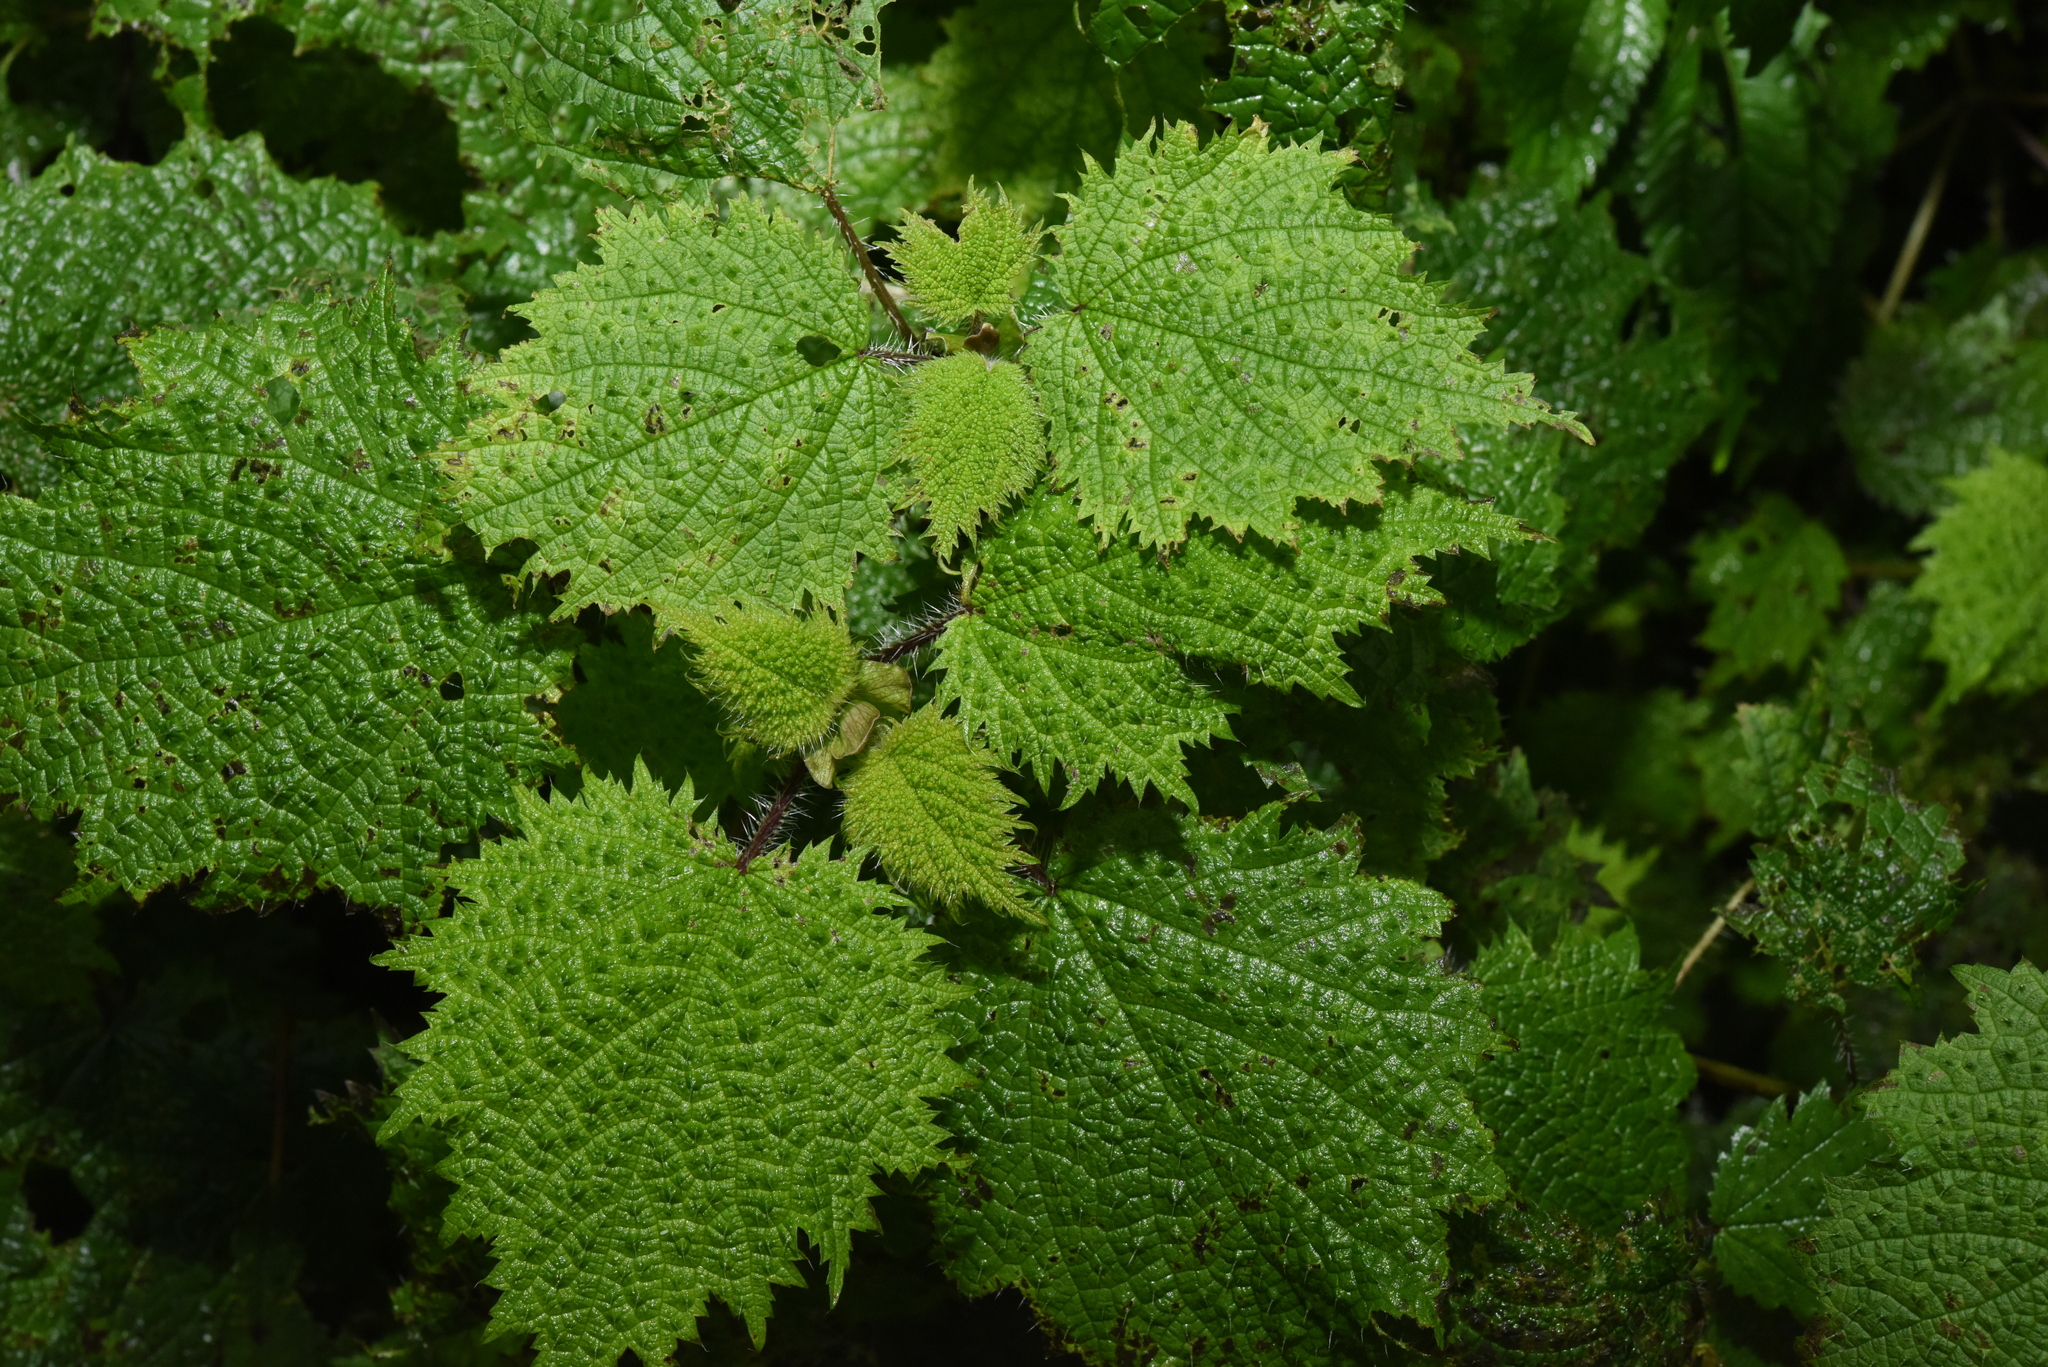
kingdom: Plantae
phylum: Tracheophyta
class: Magnoliopsida
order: Rosales
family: Urticaceae
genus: Urtica
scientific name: Urtica thunbergiana
